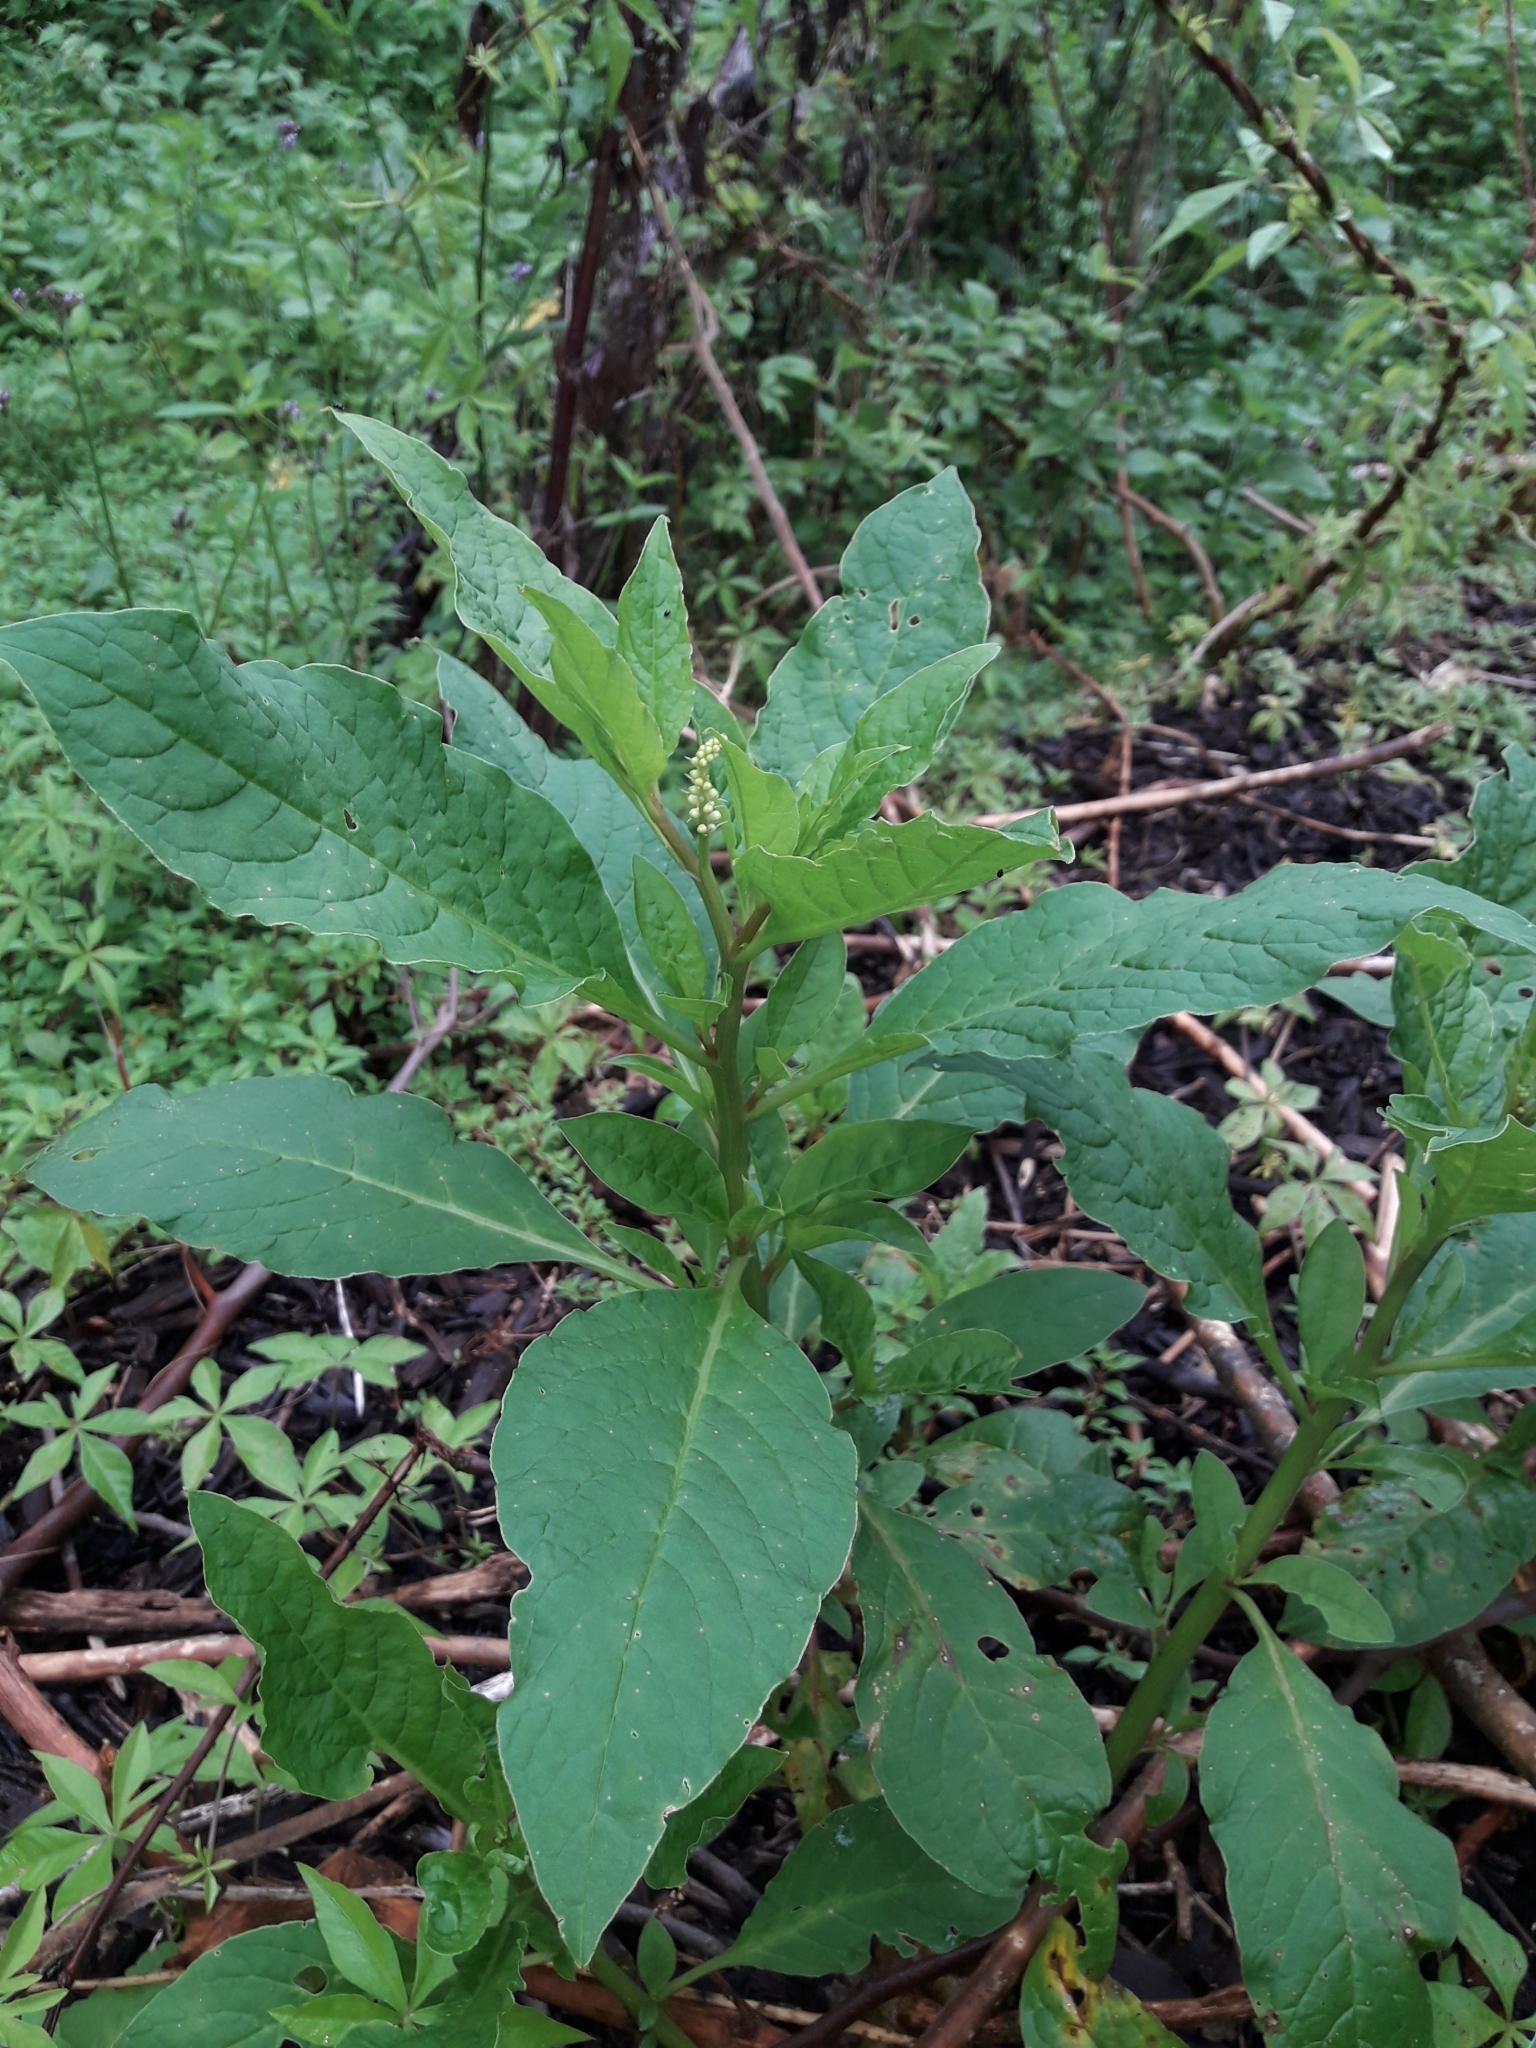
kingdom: Plantae
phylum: Tracheophyta
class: Magnoliopsida
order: Caryophyllales
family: Phytolaccaceae
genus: Phytolacca
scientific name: Phytolacca icosandra
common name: Button pokeweed
